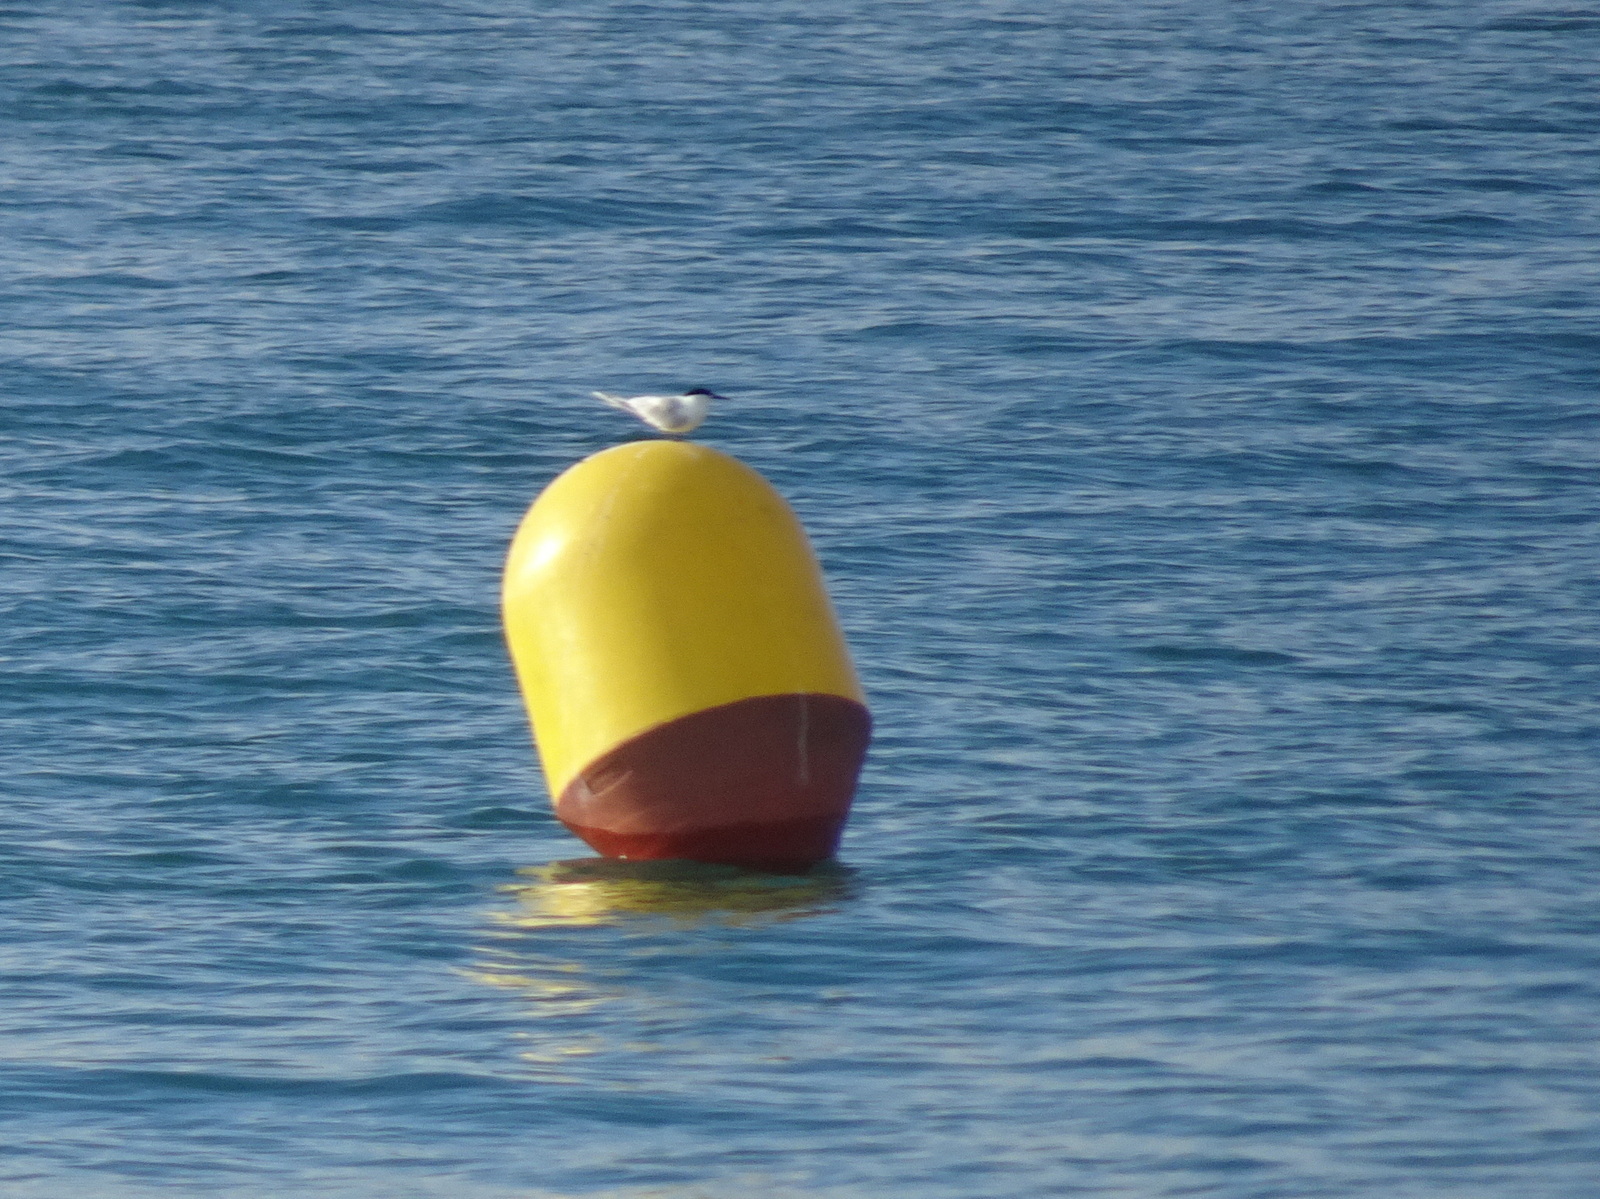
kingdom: Animalia
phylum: Chordata
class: Aves
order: Charadriiformes
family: Laridae
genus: Thalasseus
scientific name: Thalasseus sandvicensis
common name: Sandwich tern
